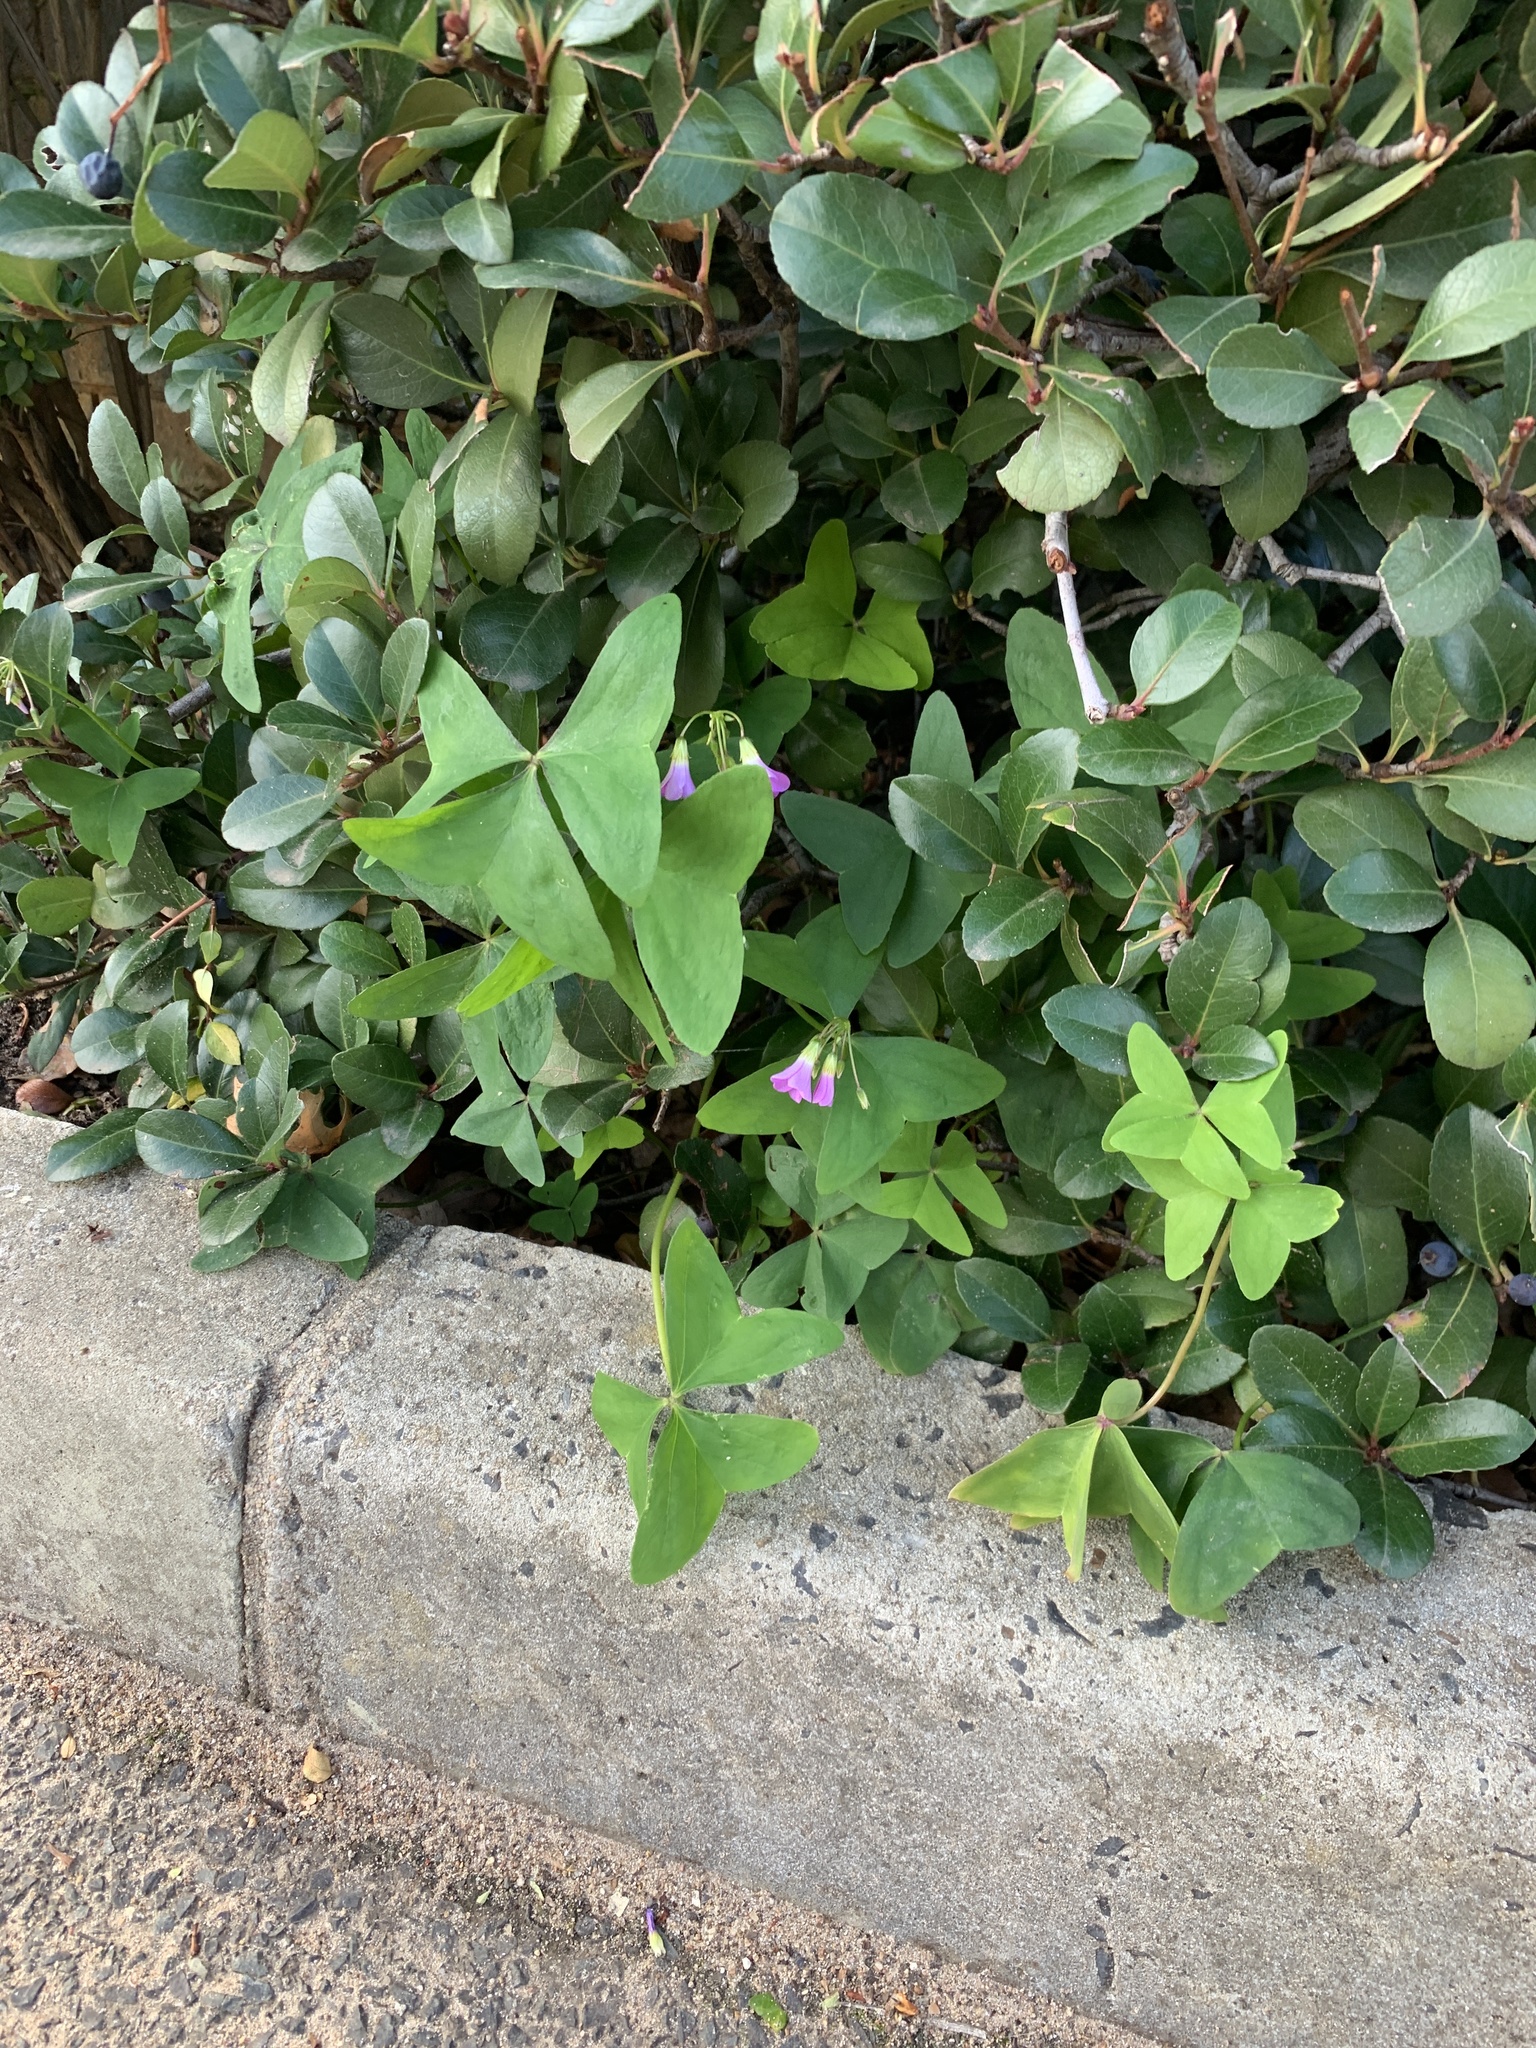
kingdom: Plantae
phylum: Tracheophyta
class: Magnoliopsida
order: Oxalidales
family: Oxalidaceae
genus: Oxalis
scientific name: Oxalis latifolia
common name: Garden pink-sorrel
